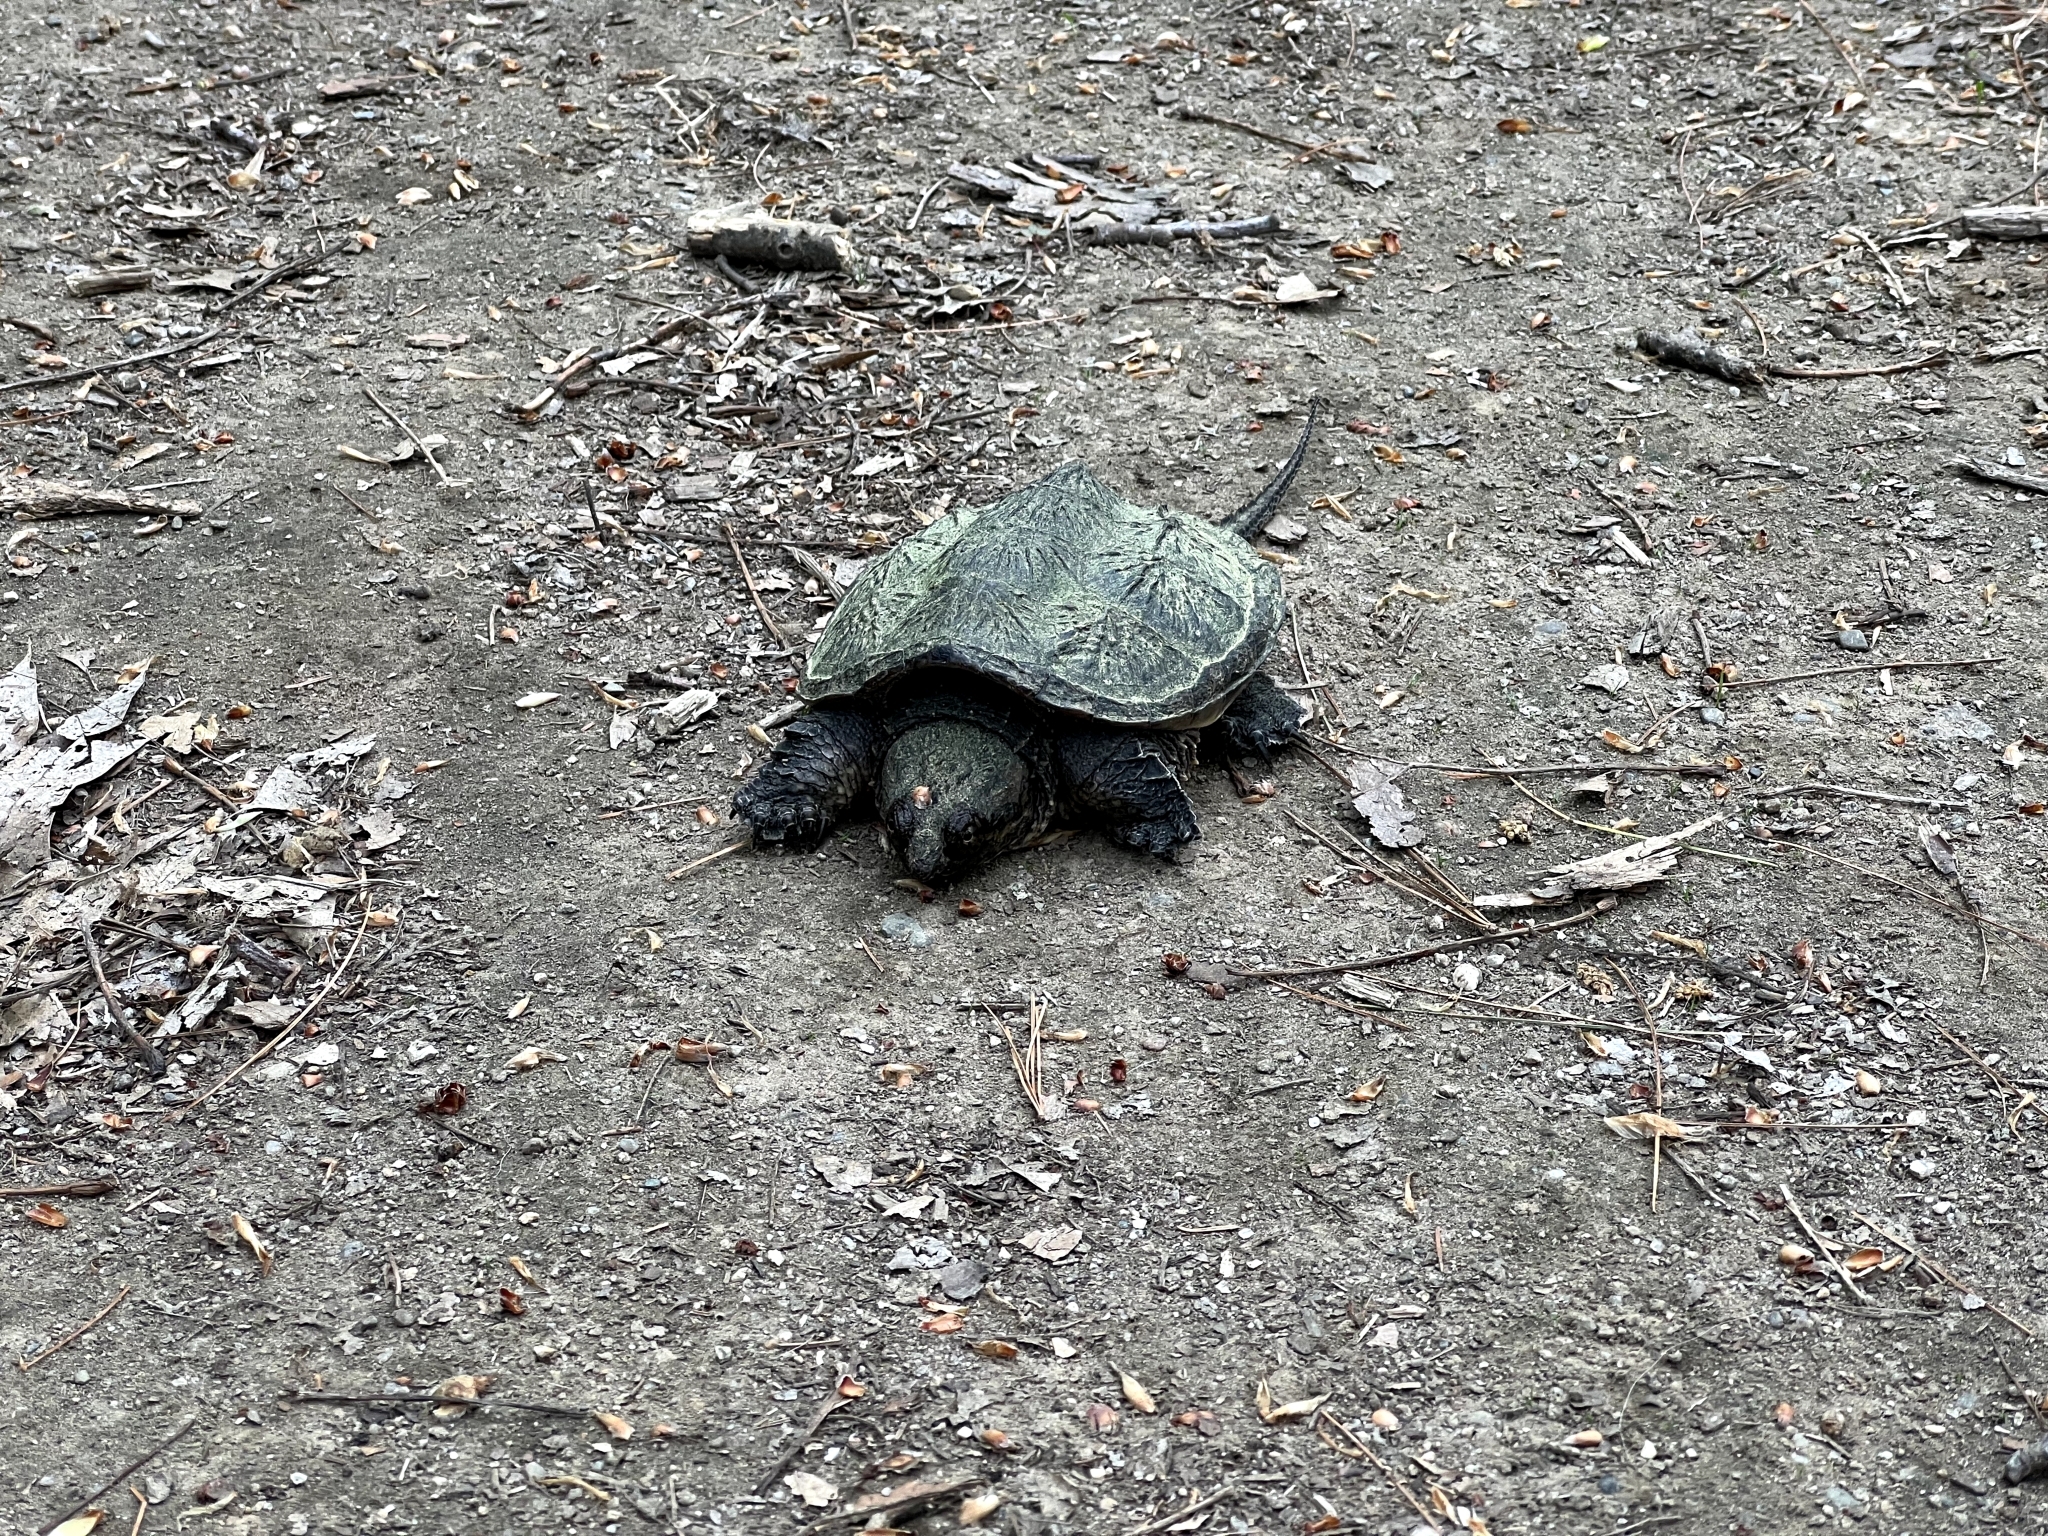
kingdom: Animalia
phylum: Chordata
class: Testudines
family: Chelydridae
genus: Chelydra
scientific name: Chelydra serpentina
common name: Common snapping turtle
